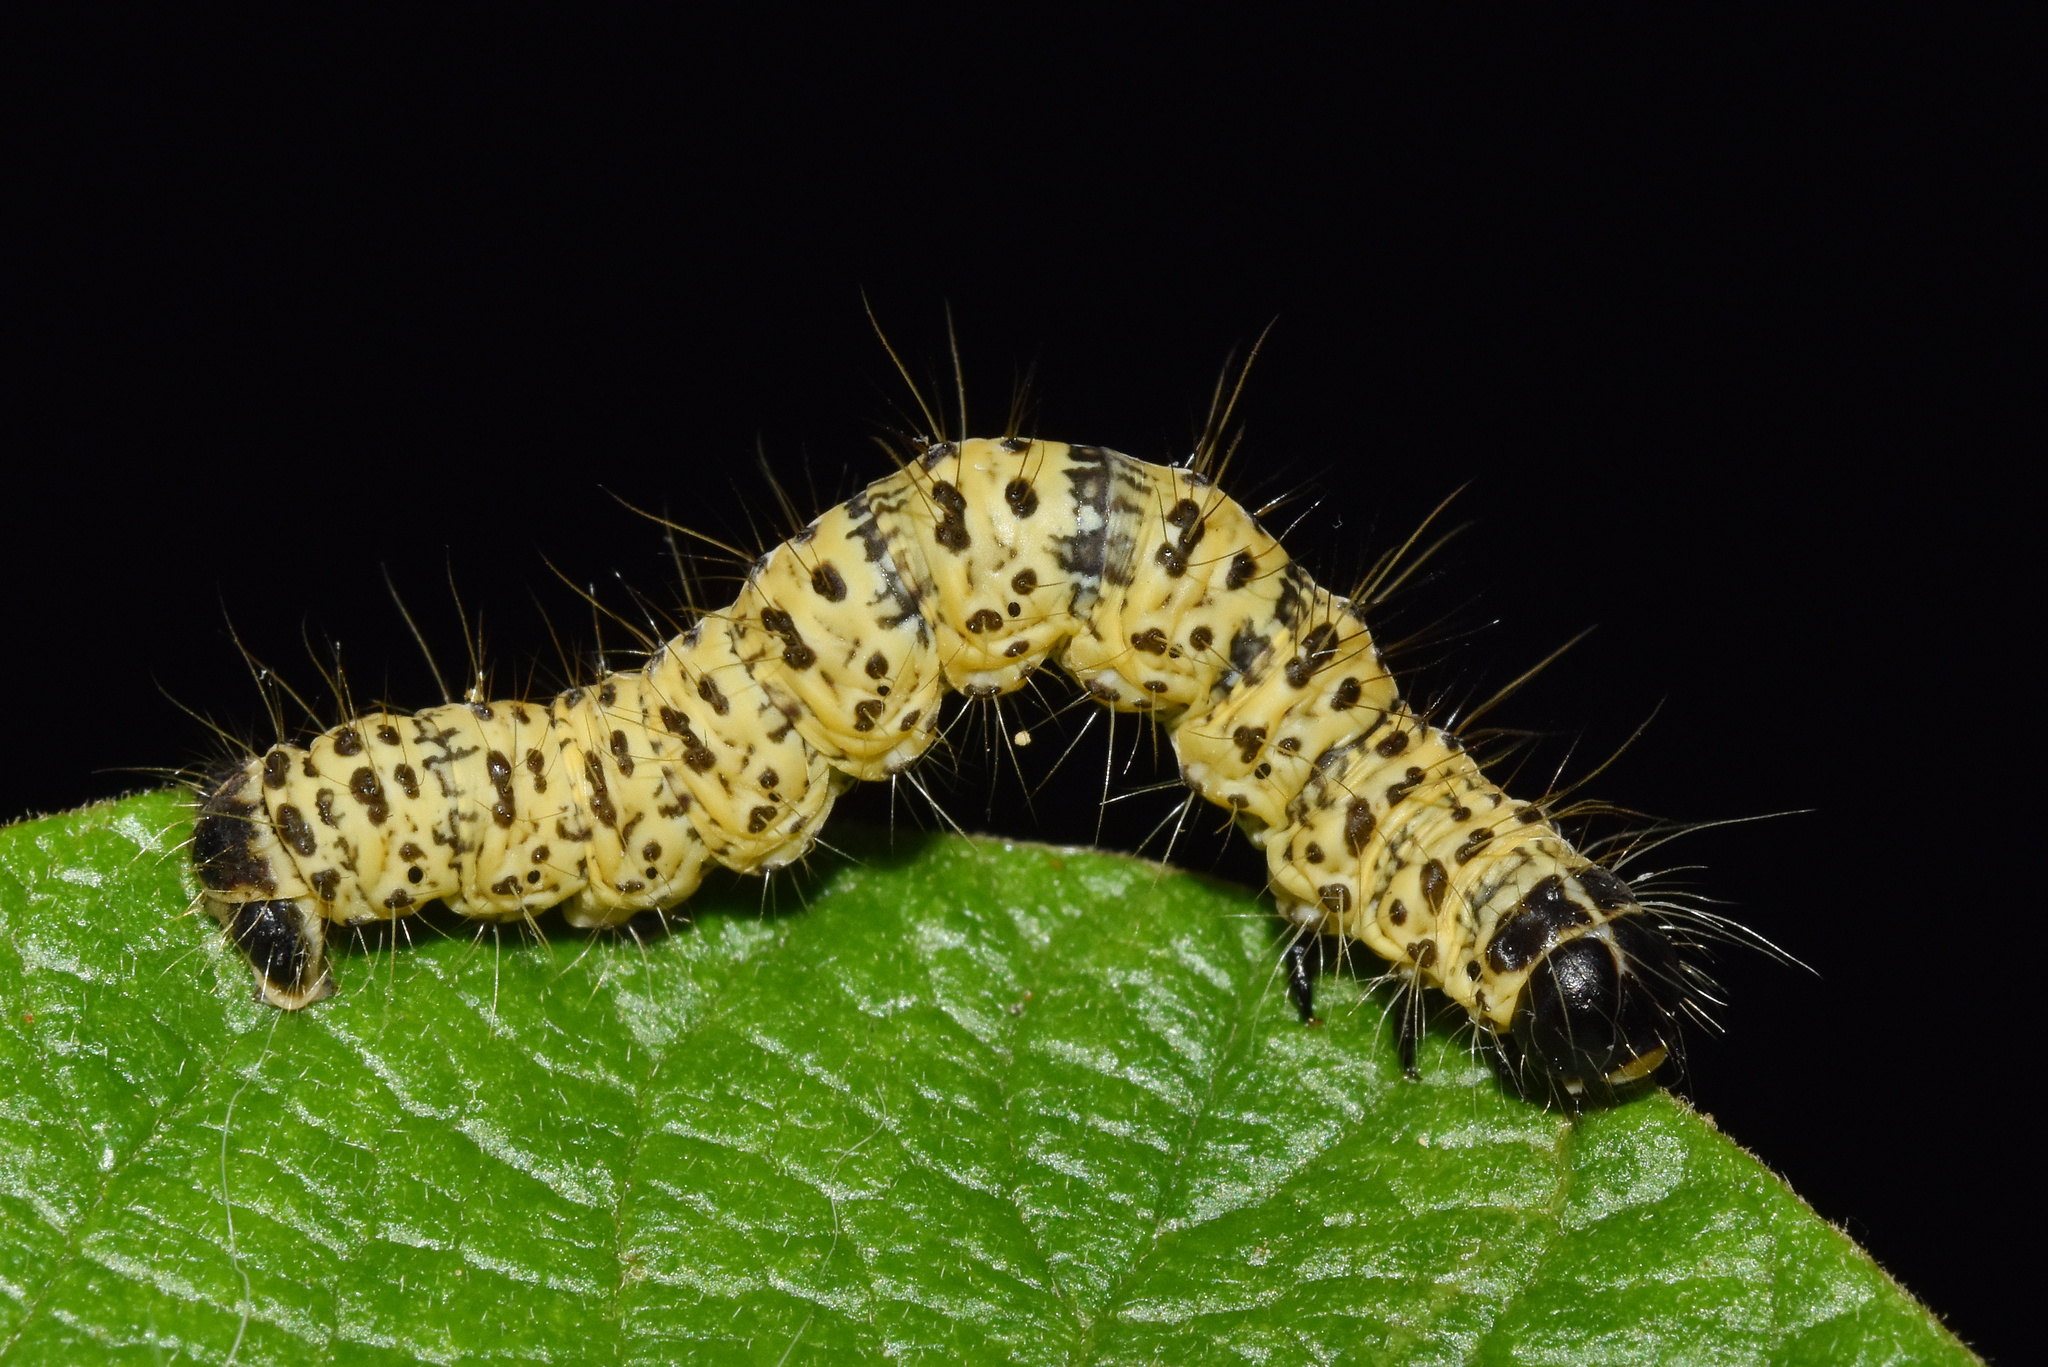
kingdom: Animalia
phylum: Arthropoda
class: Insecta
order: Lepidoptera
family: Geometridae
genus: Zerenopsis
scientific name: Zerenopsis lepida
